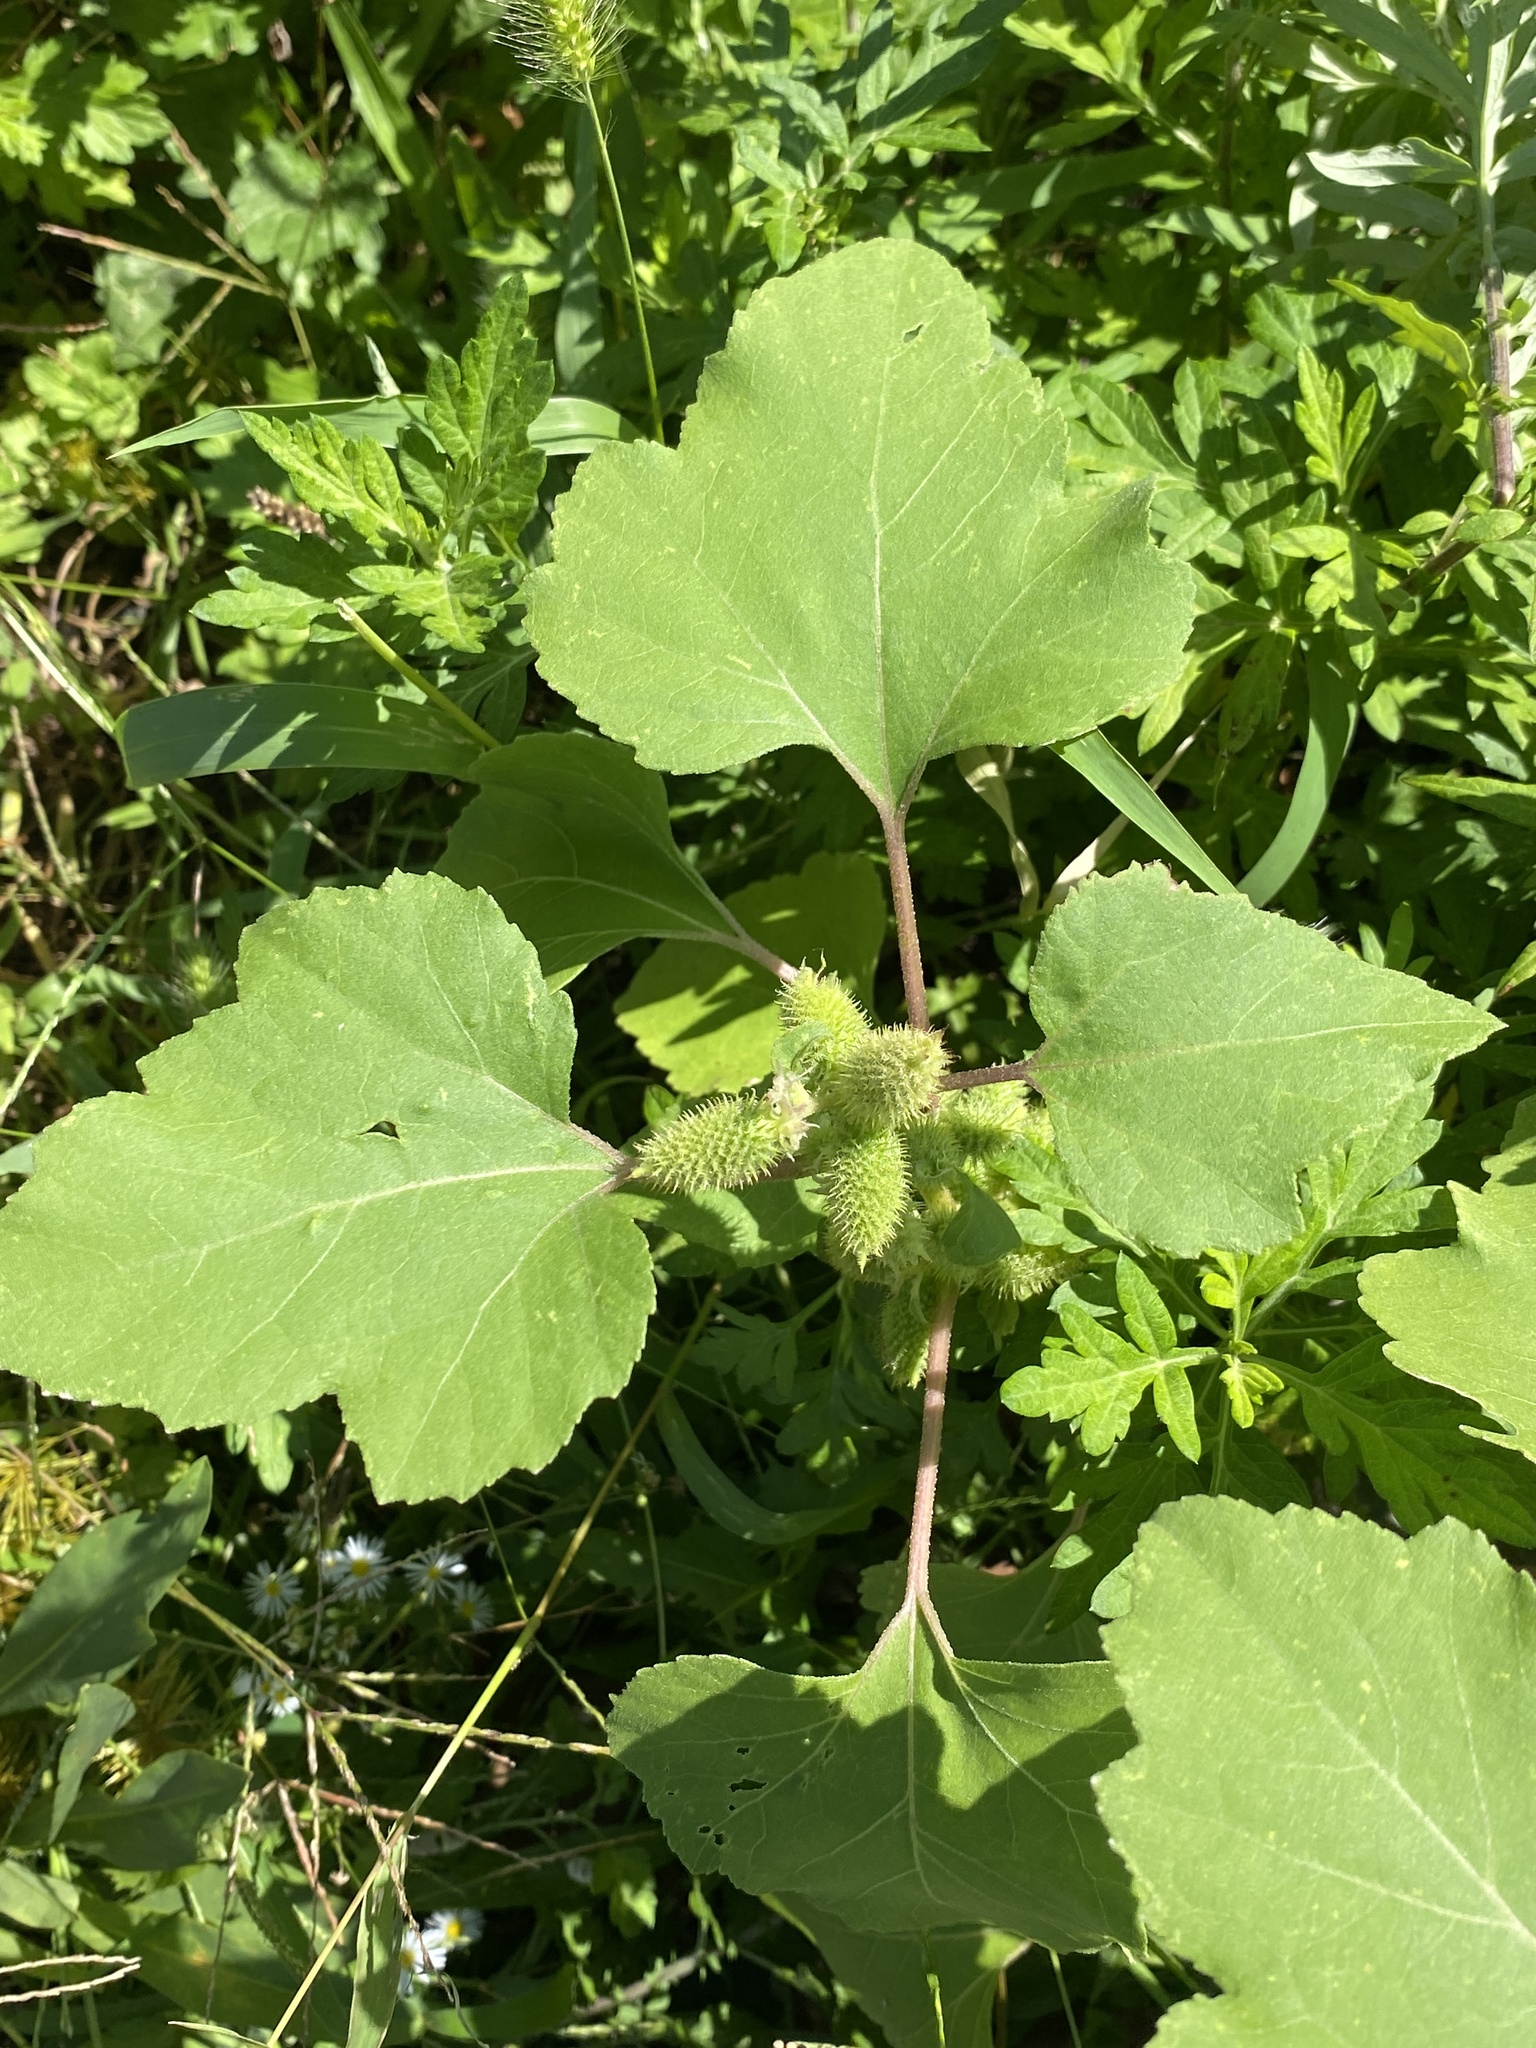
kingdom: Plantae
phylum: Tracheophyta
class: Magnoliopsida
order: Asterales
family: Asteraceae
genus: Xanthium
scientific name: Xanthium strumarium
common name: Rough cocklebur
